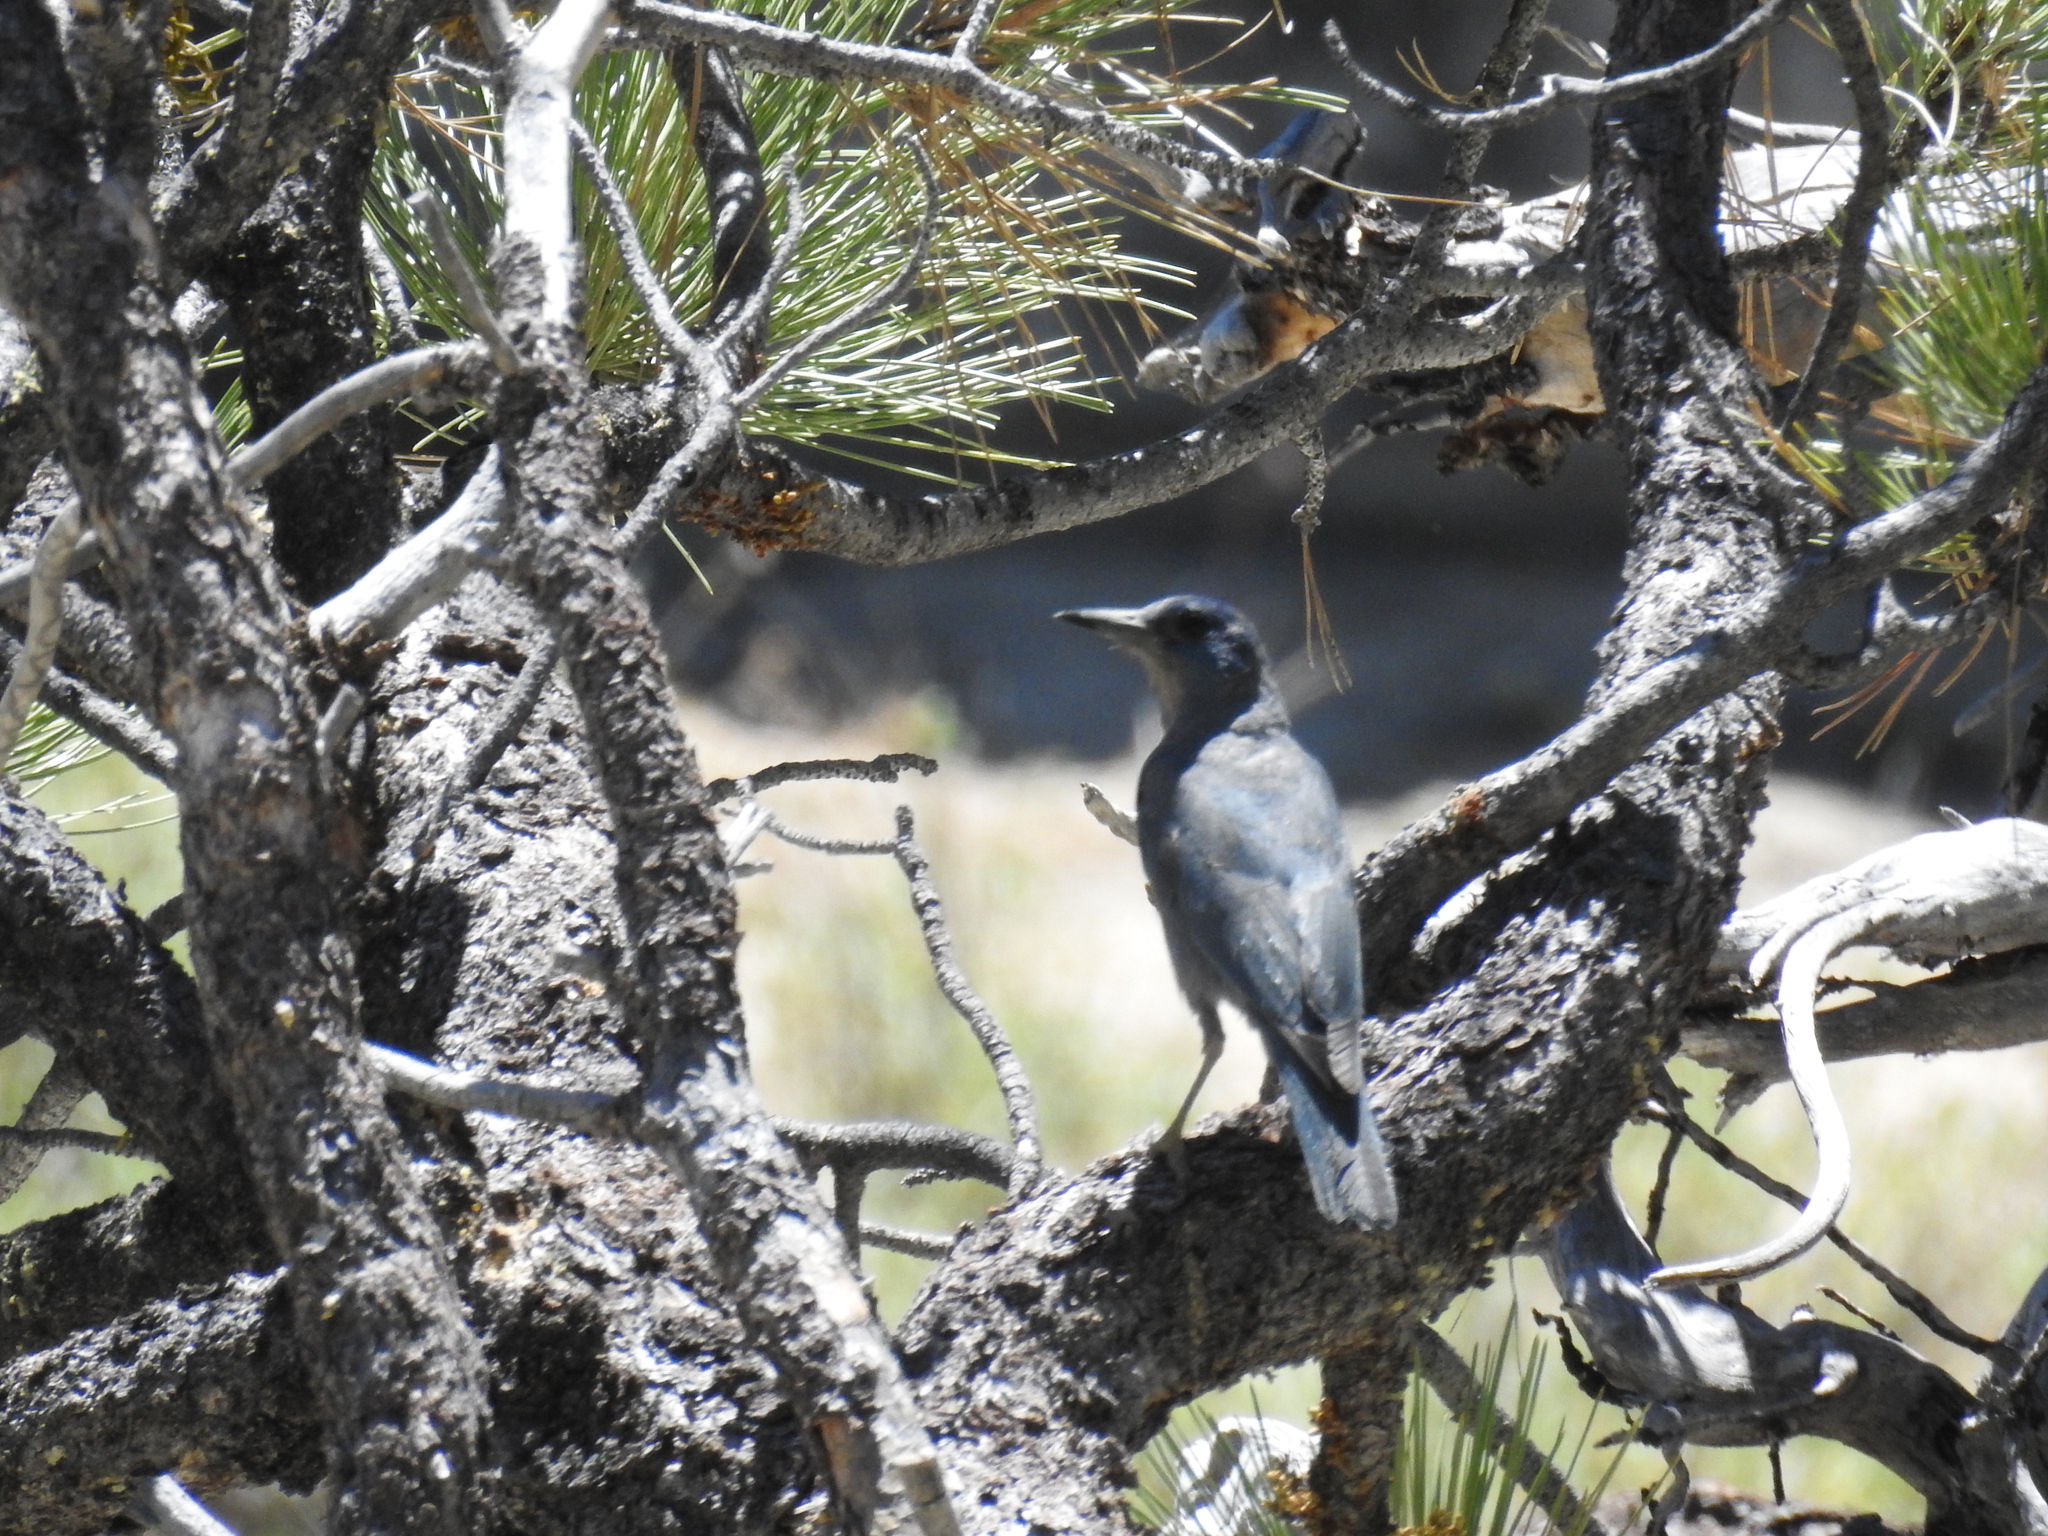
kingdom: Animalia
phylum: Chordata
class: Aves
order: Passeriformes
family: Corvidae
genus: Gymnorhinus
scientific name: Gymnorhinus cyanocephalus
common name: Pinyon jay
